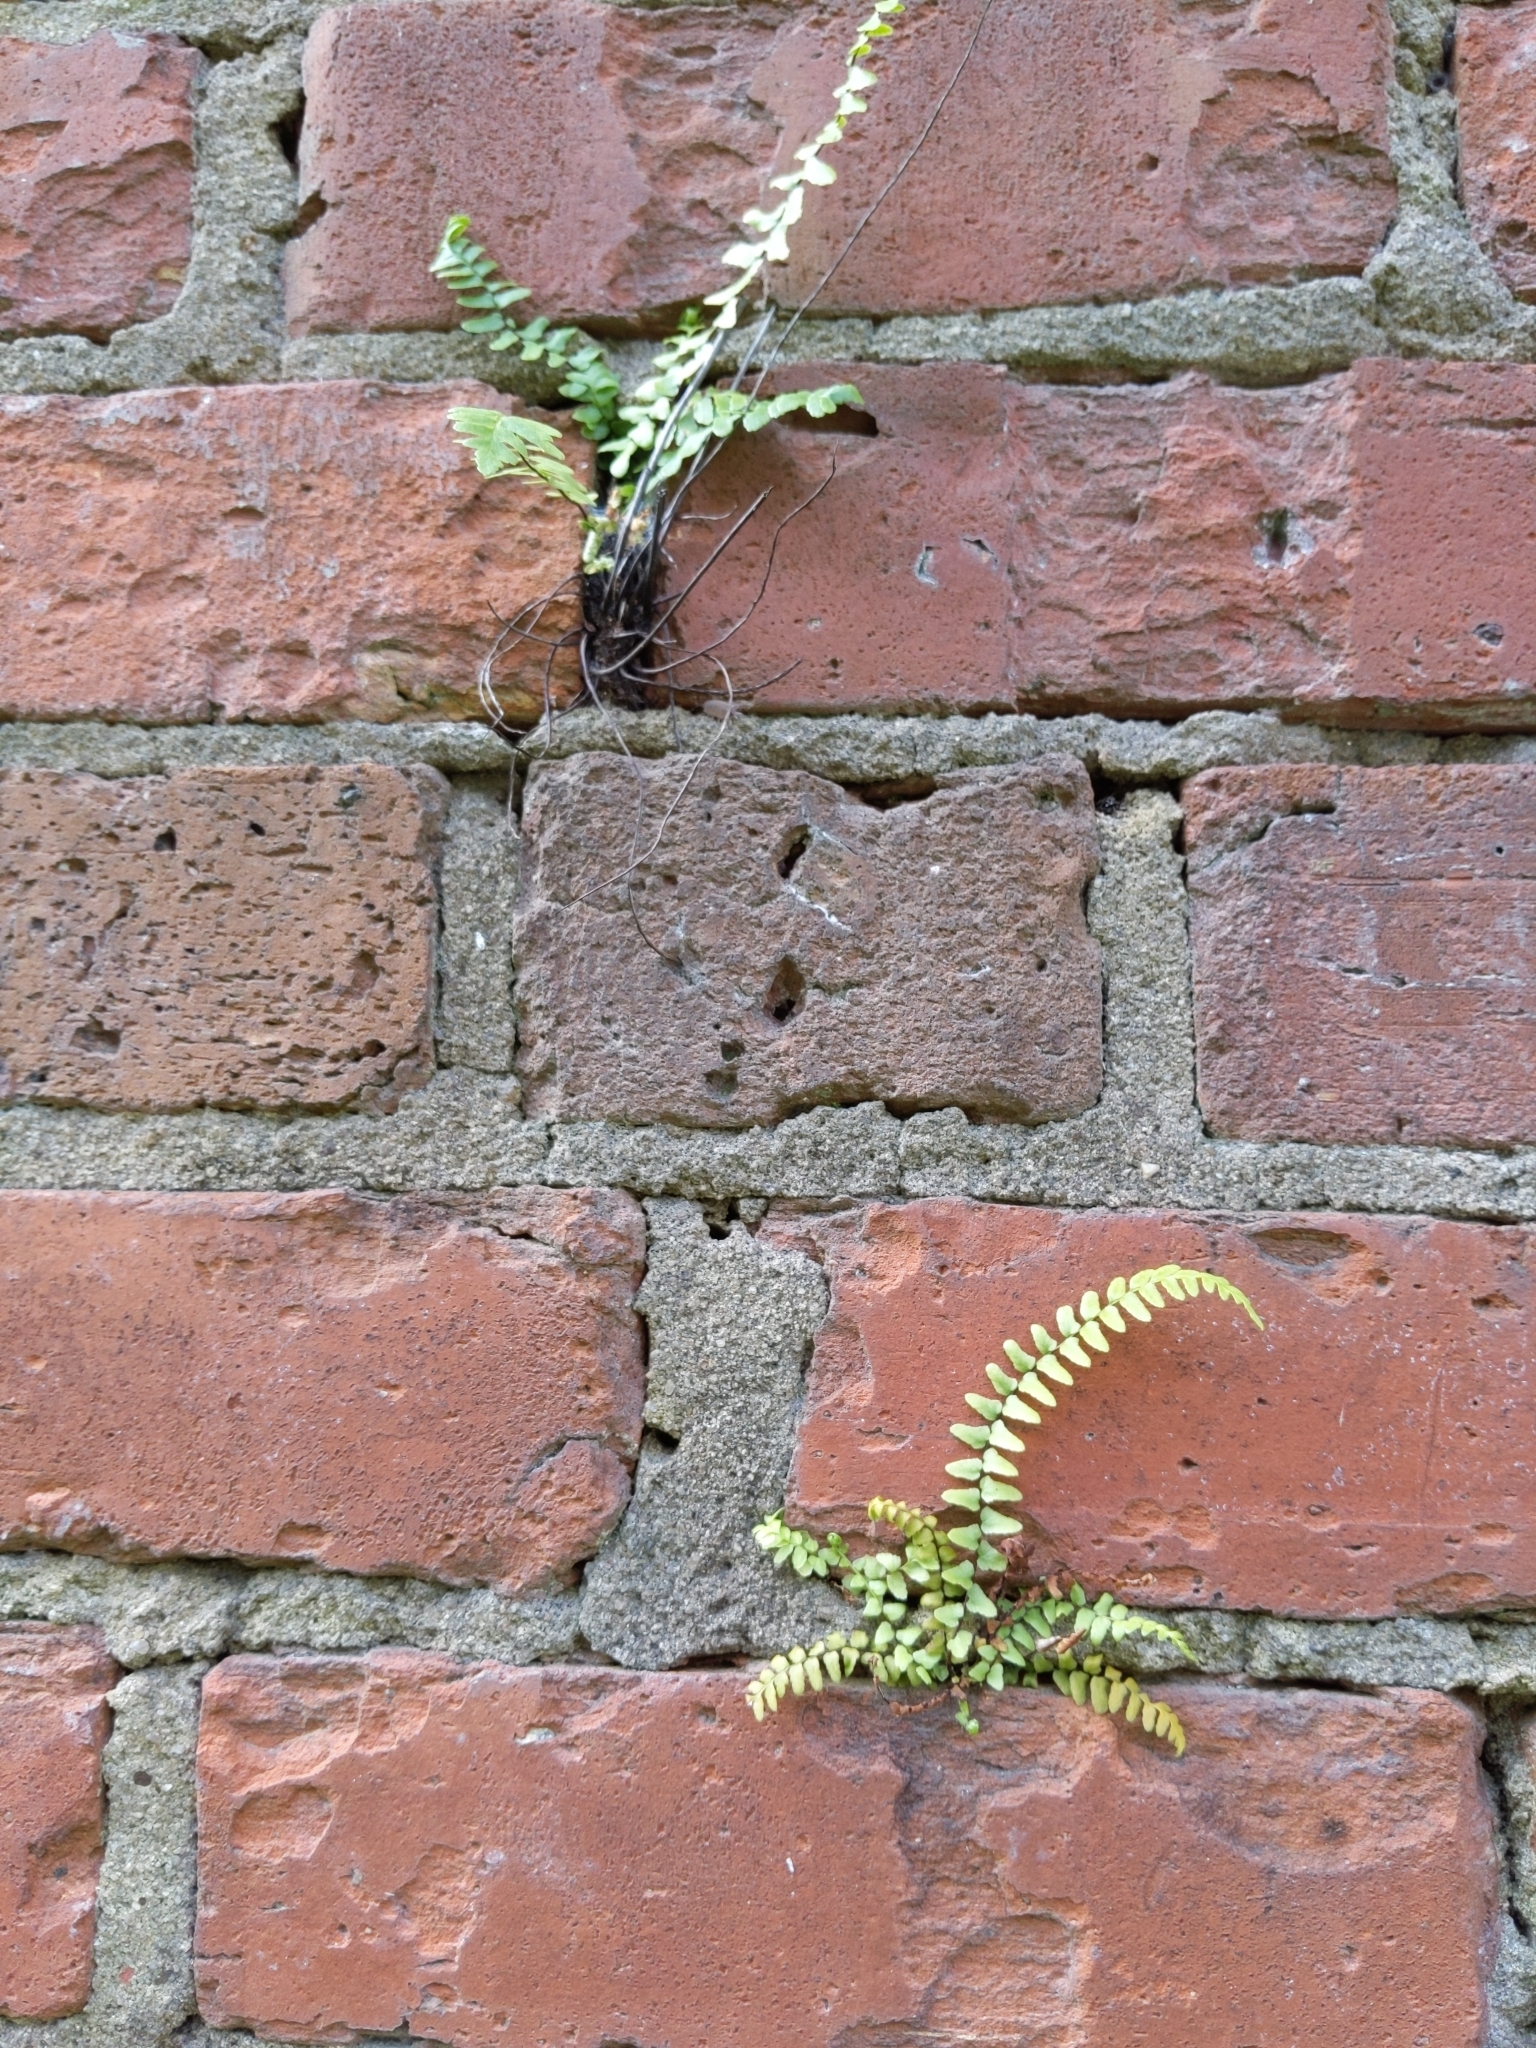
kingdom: Plantae
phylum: Tracheophyta
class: Polypodiopsida
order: Polypodiales
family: Aspleniaceae
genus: Asplenium
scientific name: Asplenium platyneuron
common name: Ebony spleenwort
